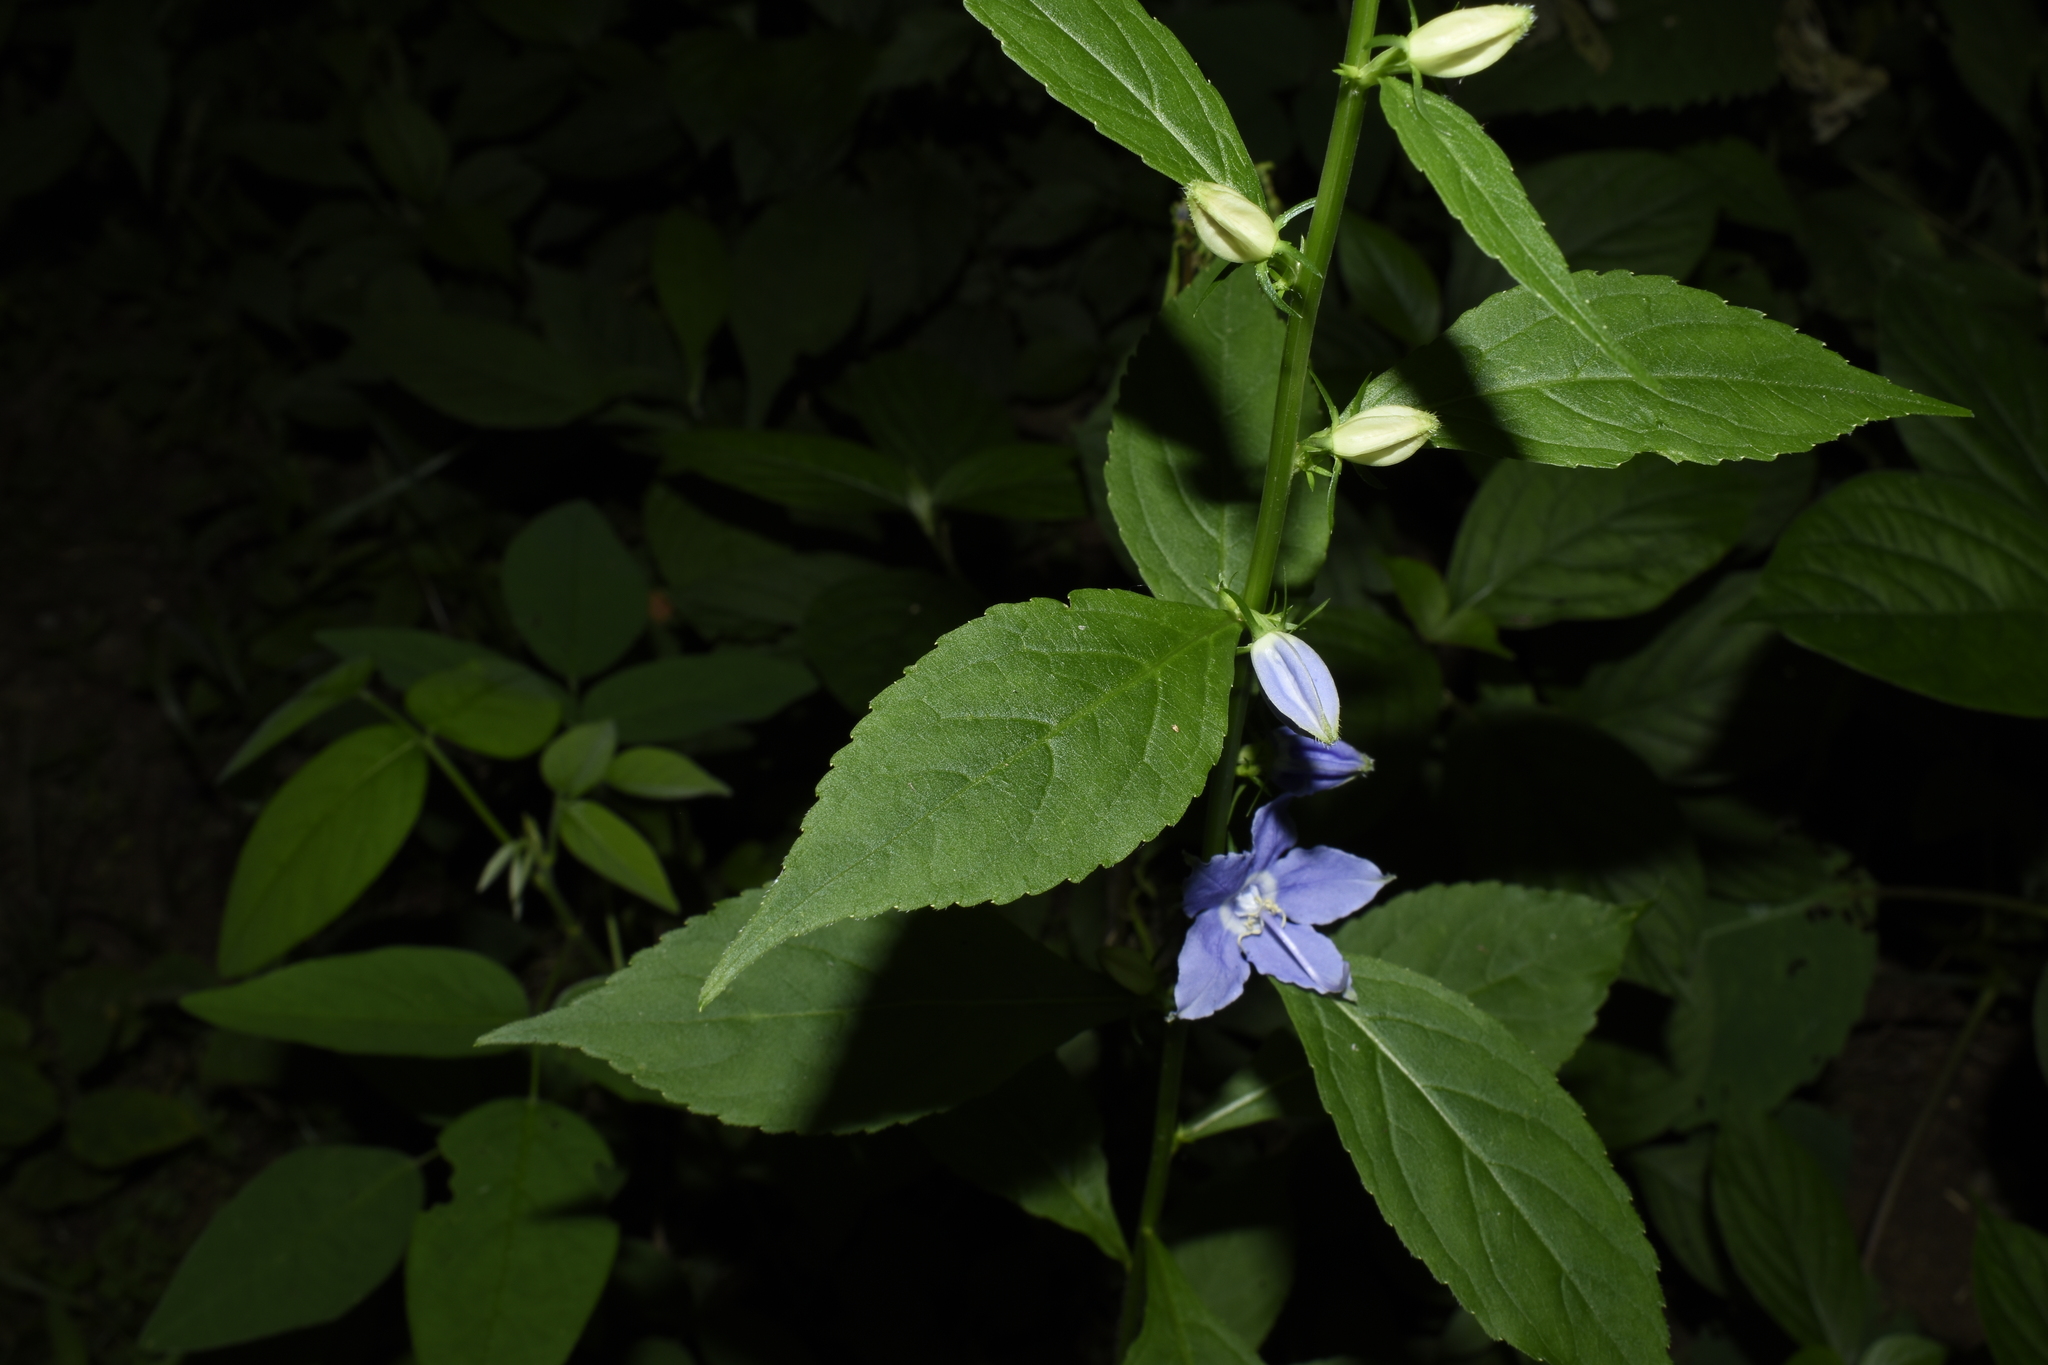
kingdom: Plantae
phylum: Tracheophyta
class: Magnoliopsida
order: Asterales
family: Campanulaceae
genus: Campanulastrum
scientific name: Campanulastrum americanum
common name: American bellflower
